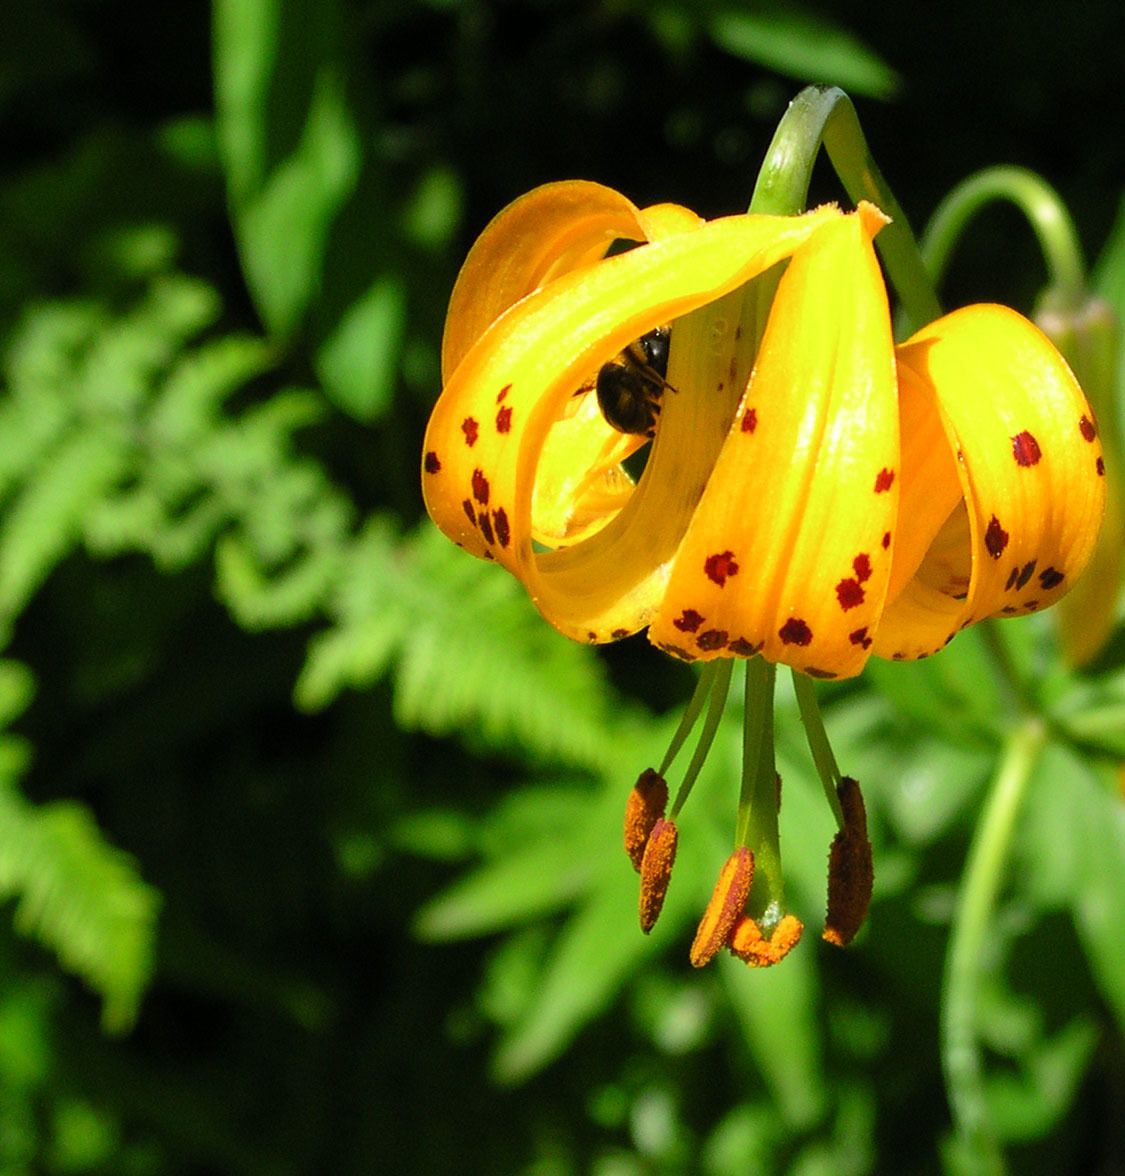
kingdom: Plantae
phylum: Tracheophyta
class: Liliopsida
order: Liliales
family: Liliaceae
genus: Lilium
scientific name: Lilium columbianum
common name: Columbia lily
